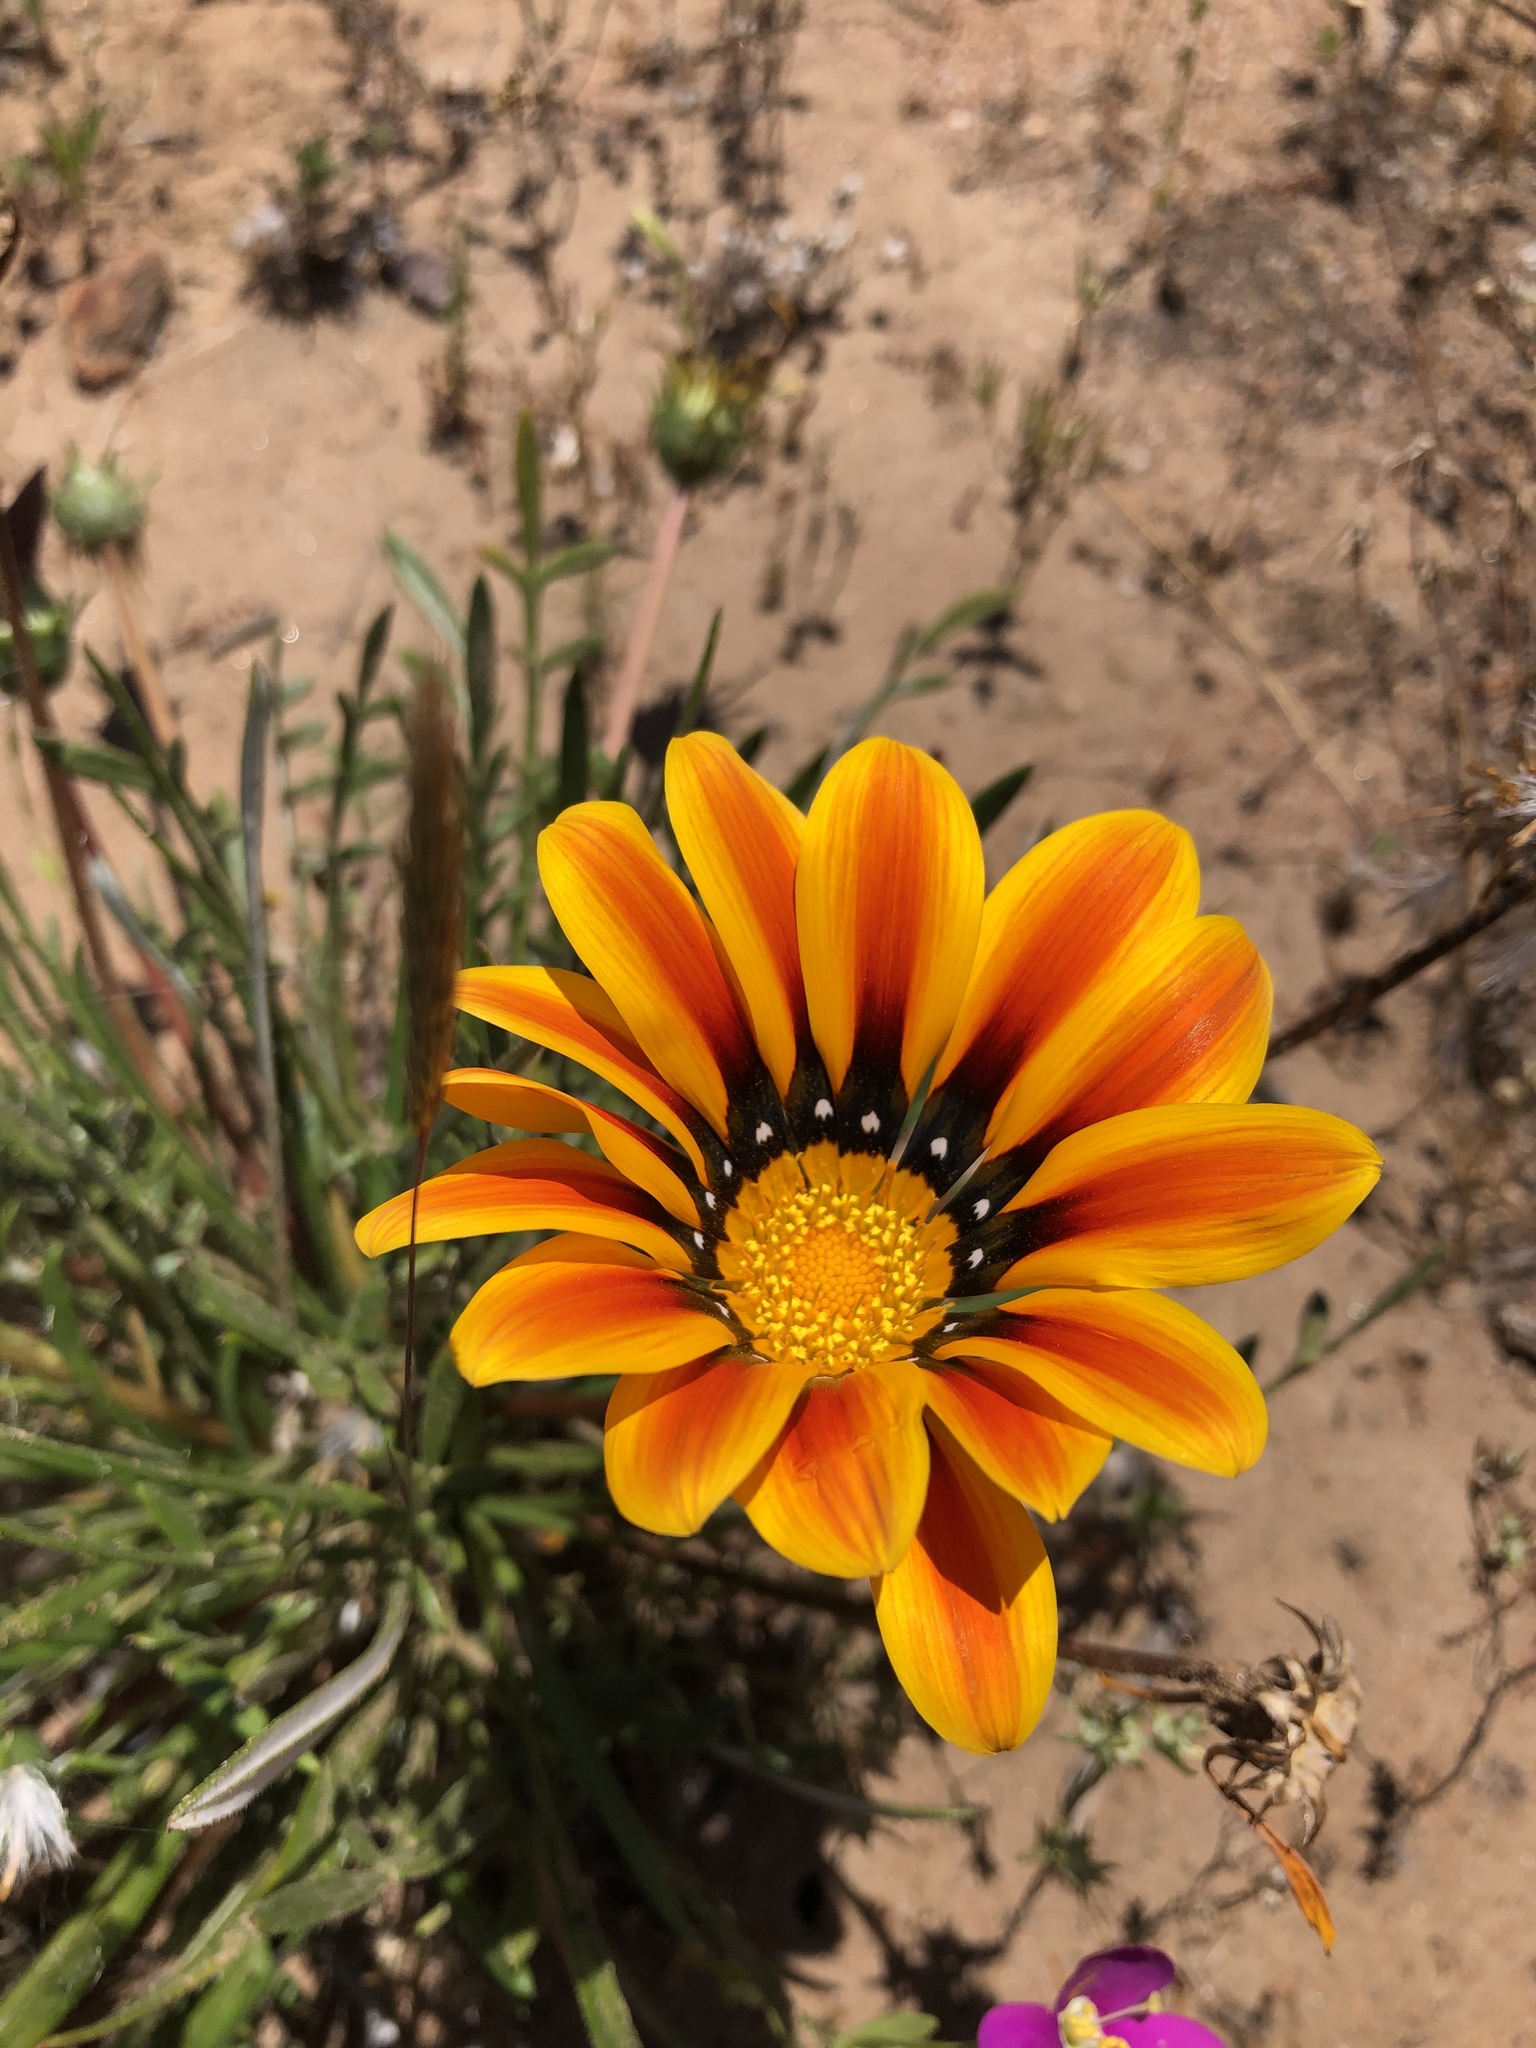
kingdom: Plantae
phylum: Tracheophyta
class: Magnoliopsida
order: Asterales
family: Asteraceae
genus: Gazania
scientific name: Gazania splendens
